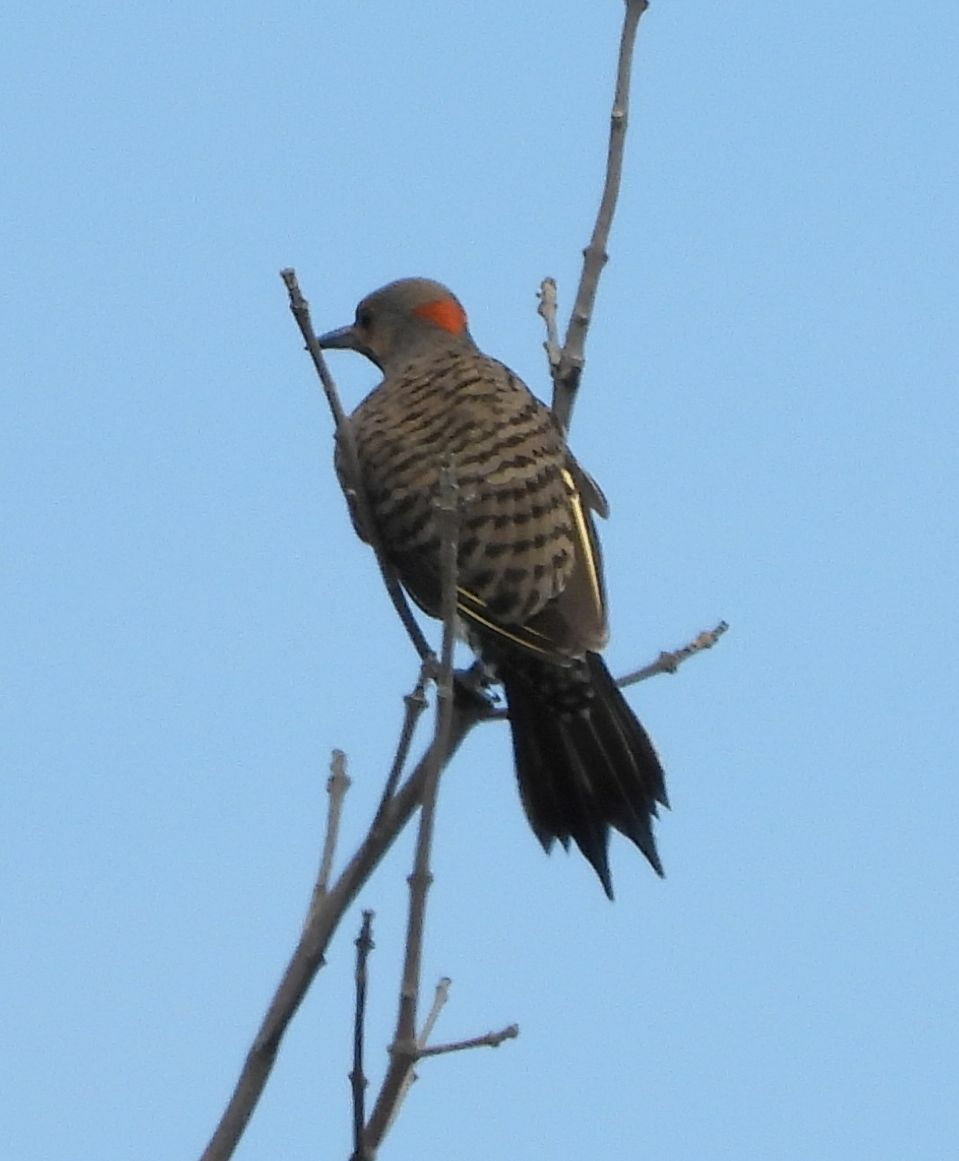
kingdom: Animalia
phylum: Chordata
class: Aves
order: Piciformes
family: Picidae
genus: Colaptes
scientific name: Colaptes auratus
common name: Northern flicker
